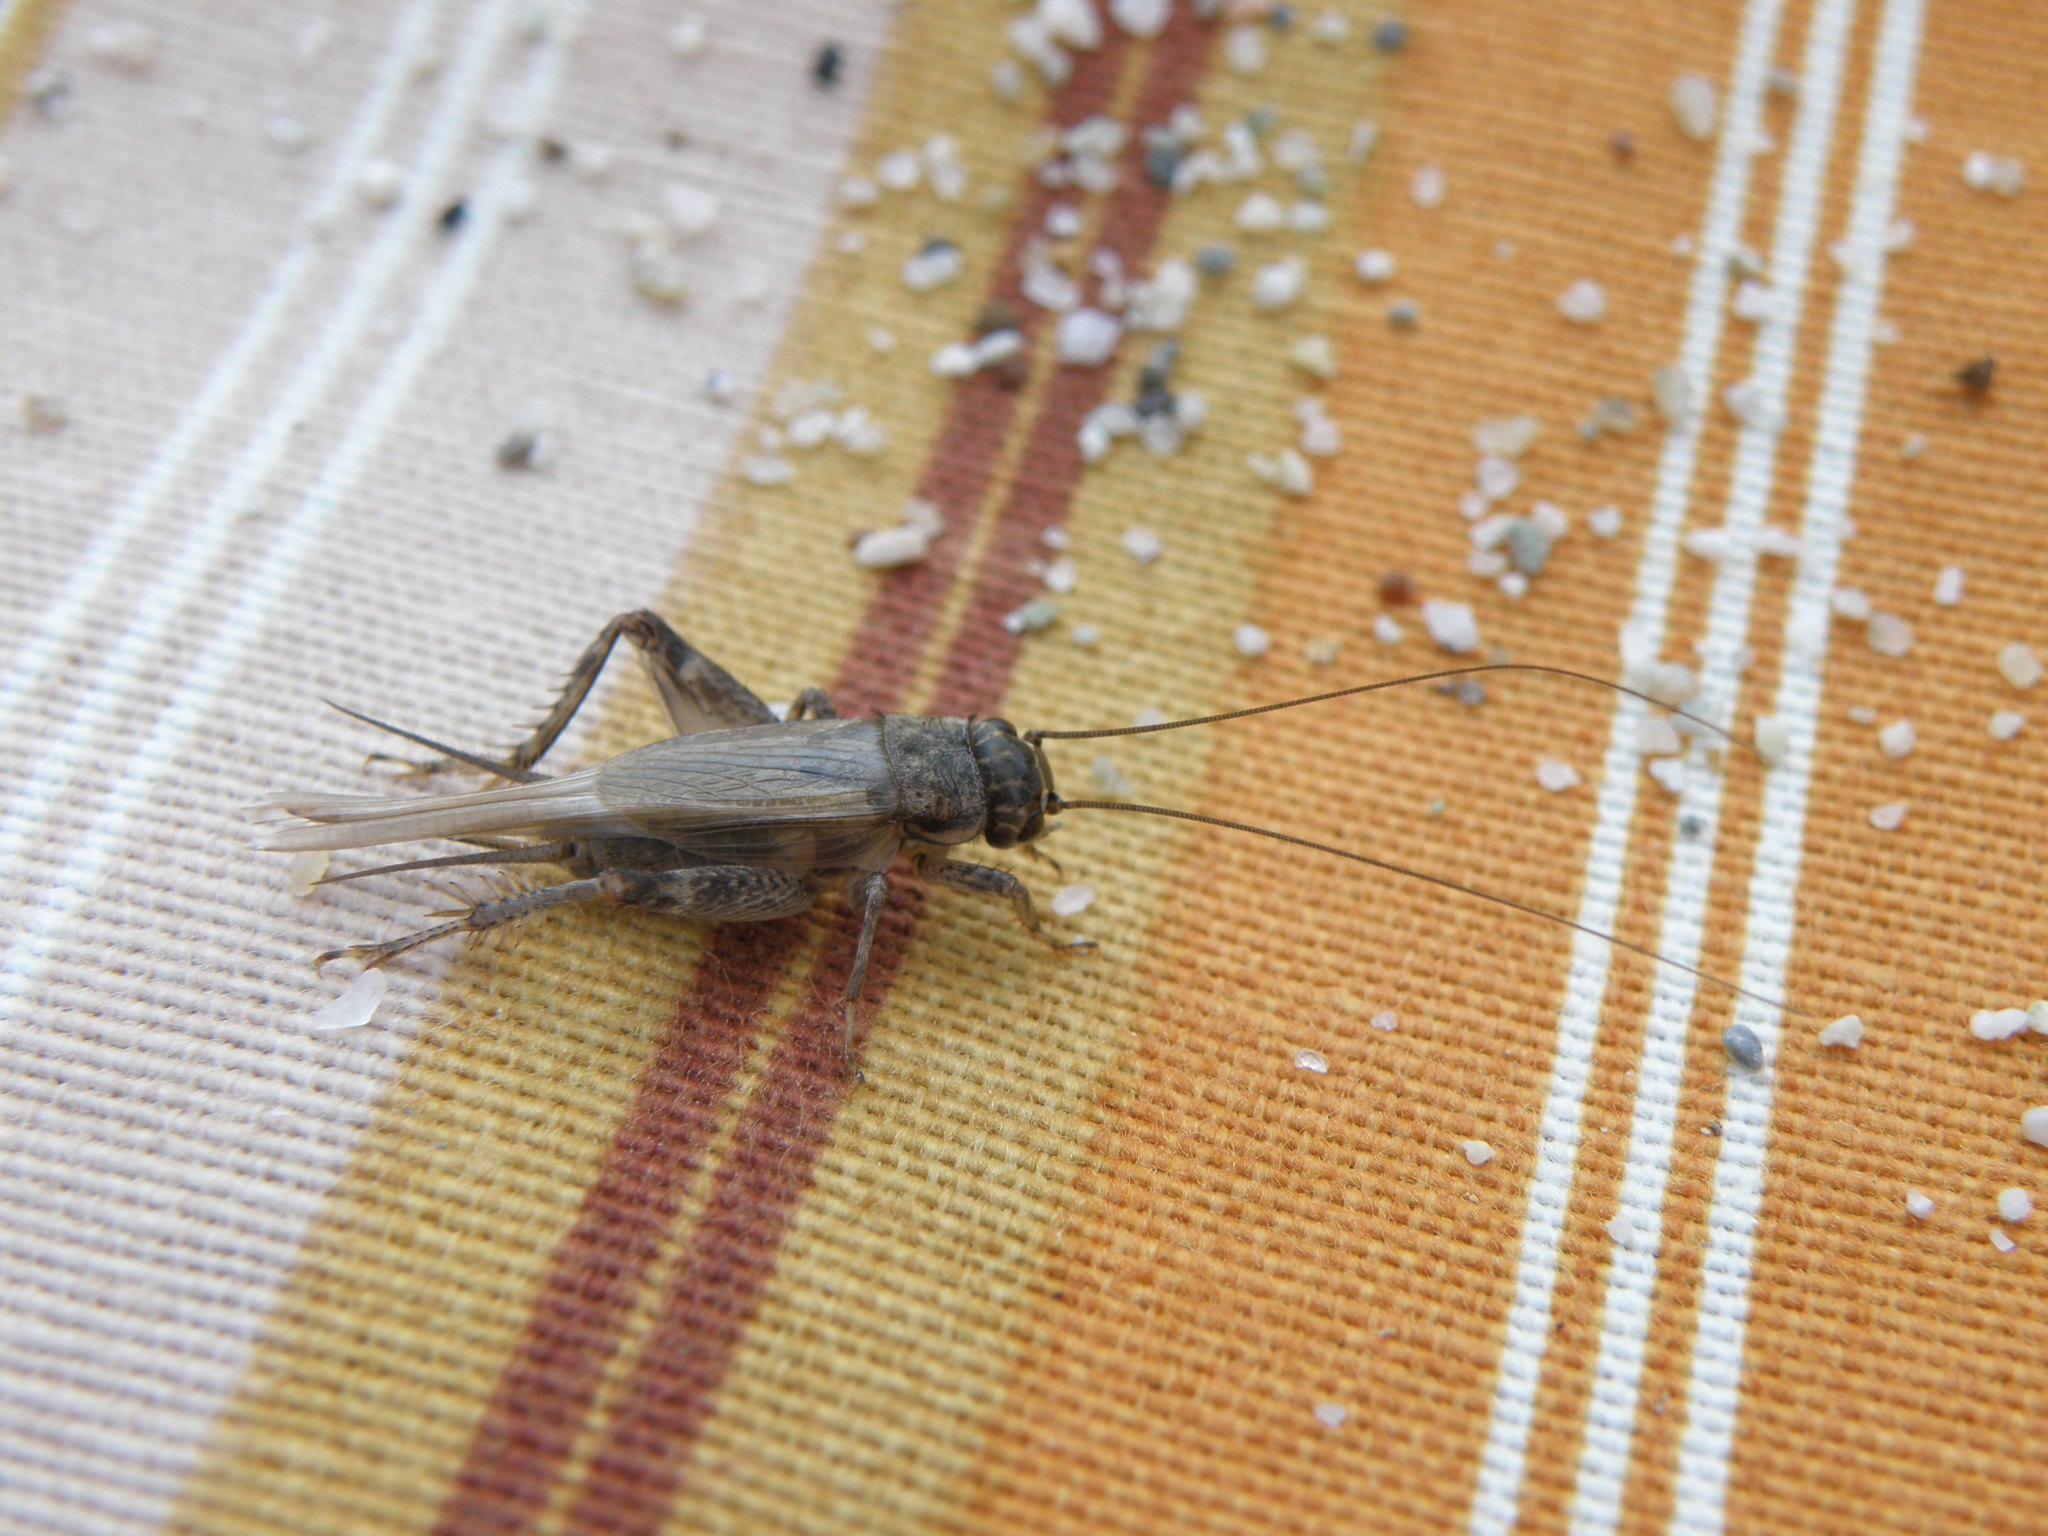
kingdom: Animalia
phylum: Arthropoda
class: Insecta
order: Orthoptera
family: Gryllidae
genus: Eumodicogryllus
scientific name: Eumodicogryllus bordigalensis
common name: Bordeaux cricket
